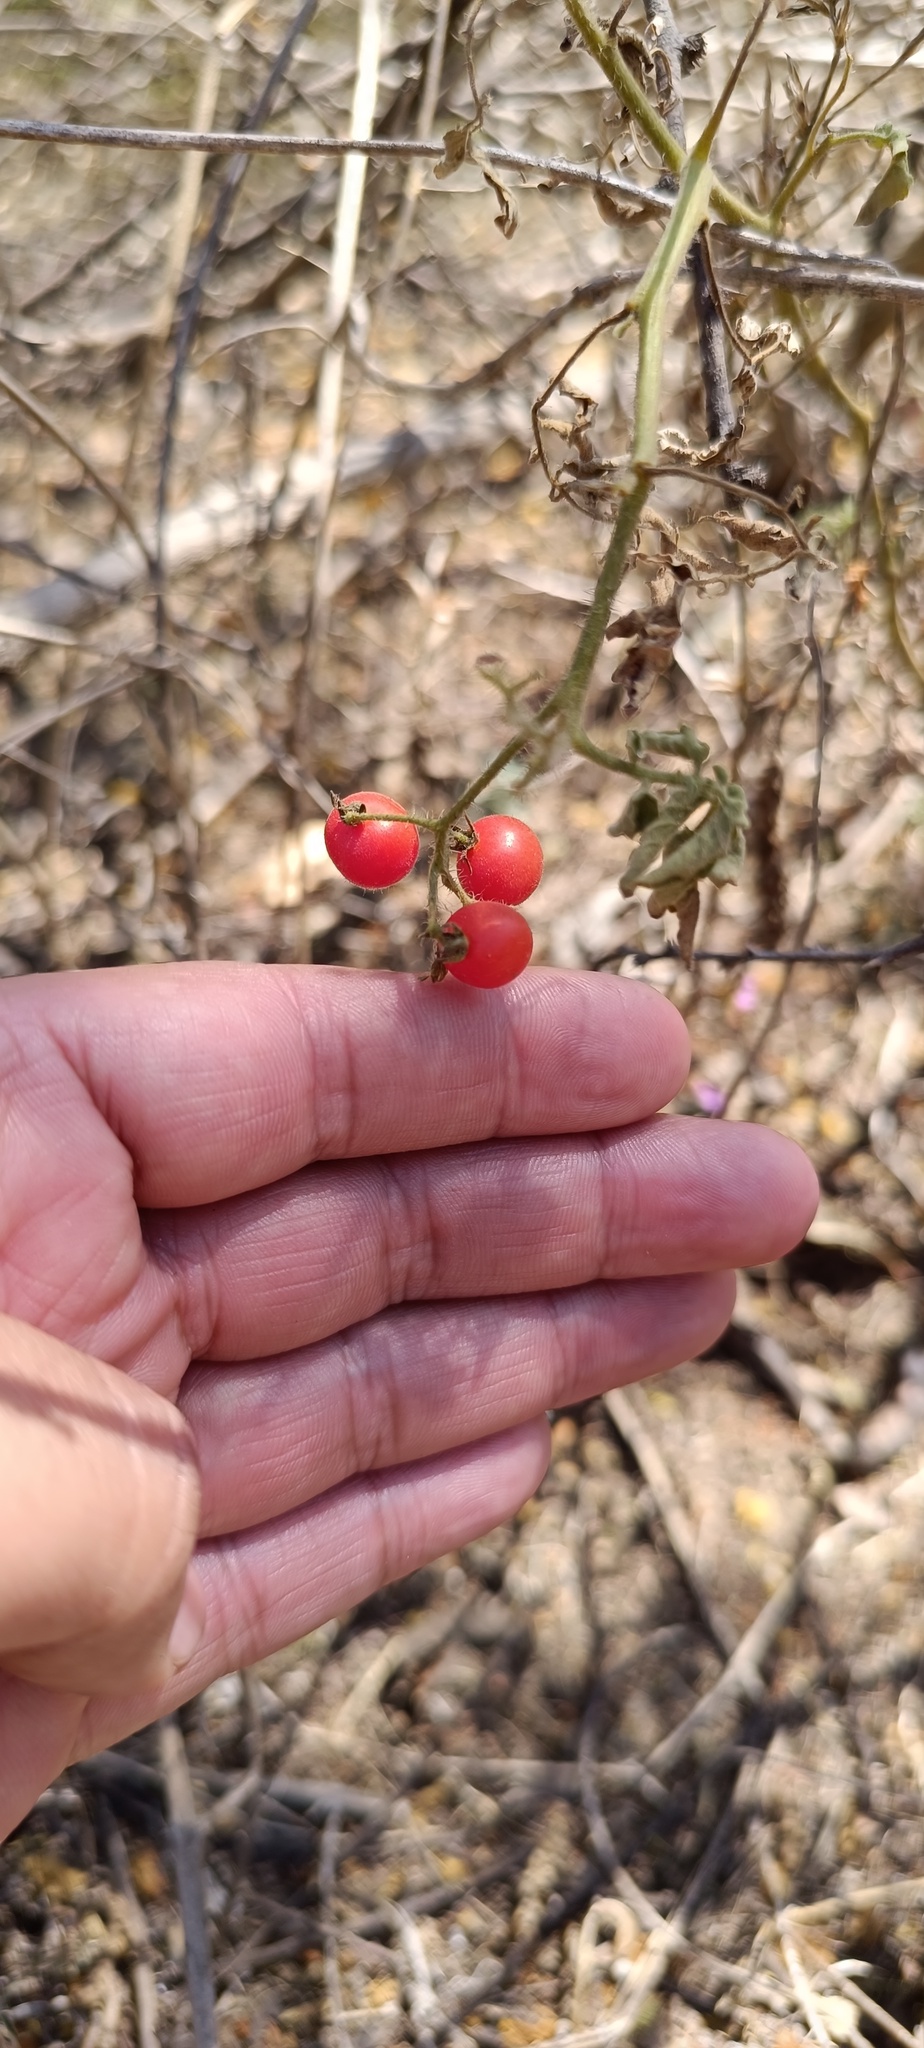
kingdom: Plantae
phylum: Tracheophyta
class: Magnoliopsida
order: Solanales
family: Solanaceae
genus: Solanum
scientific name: Solanum lycopersicum
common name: Garden tomato
